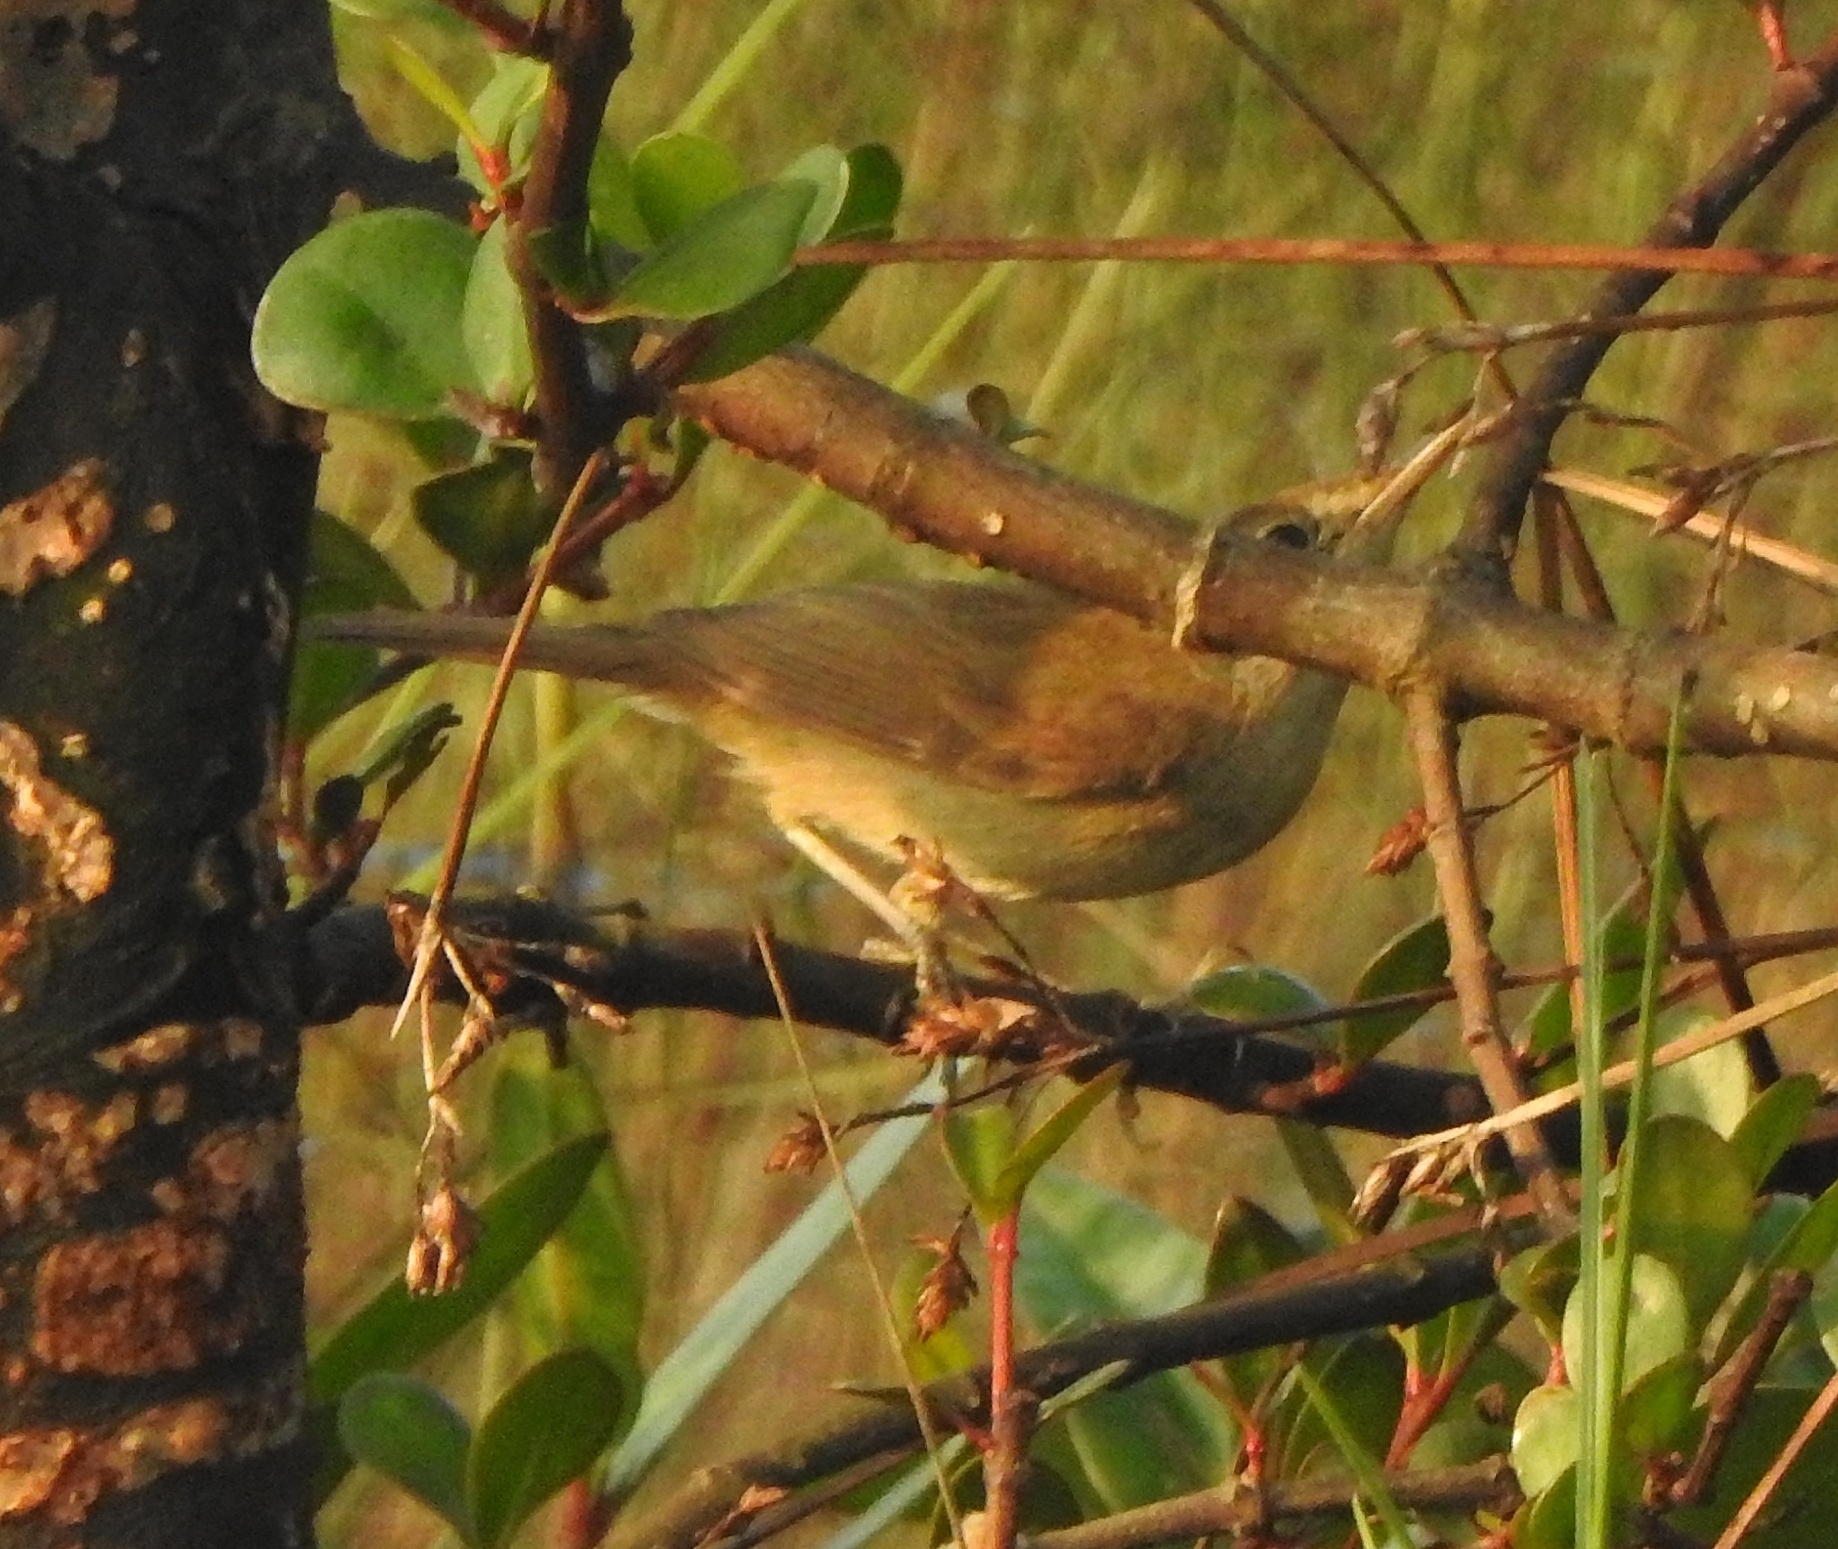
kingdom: Animalia
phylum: Chordata
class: Aves
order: Passeriformes
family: Acrocephalidae
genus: Acrocephalus
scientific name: Acrocephalus dumetorum
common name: Blyth's reed warbler
